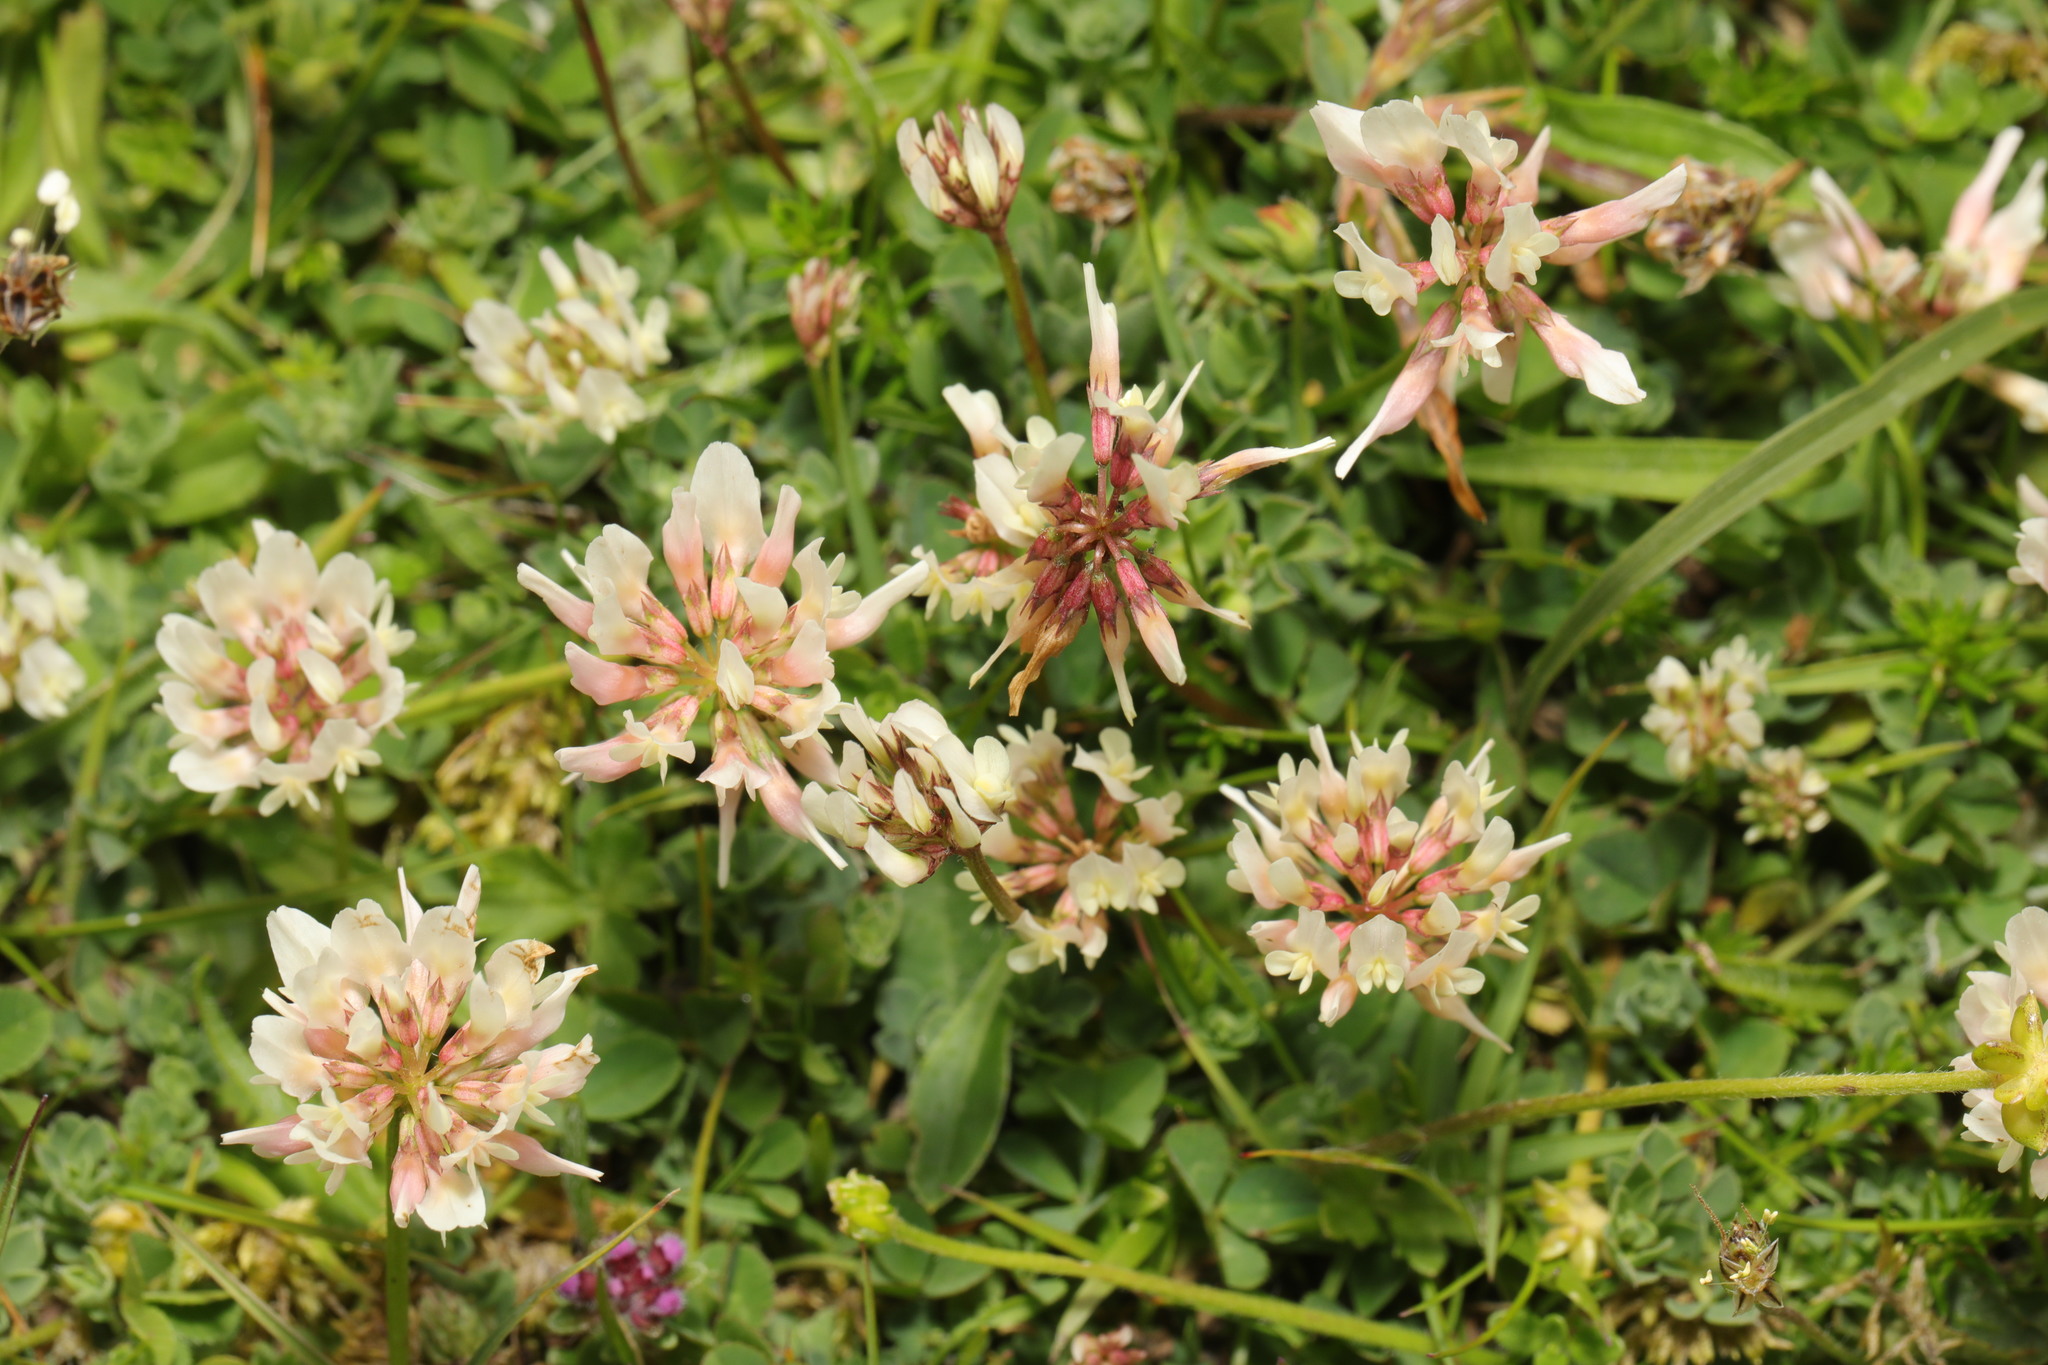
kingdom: Plantae
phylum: Tracheophyta
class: Magnoliopsida
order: Fabales
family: Fabaceae
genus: Trifolium
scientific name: Trifolium repens
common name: White clover
